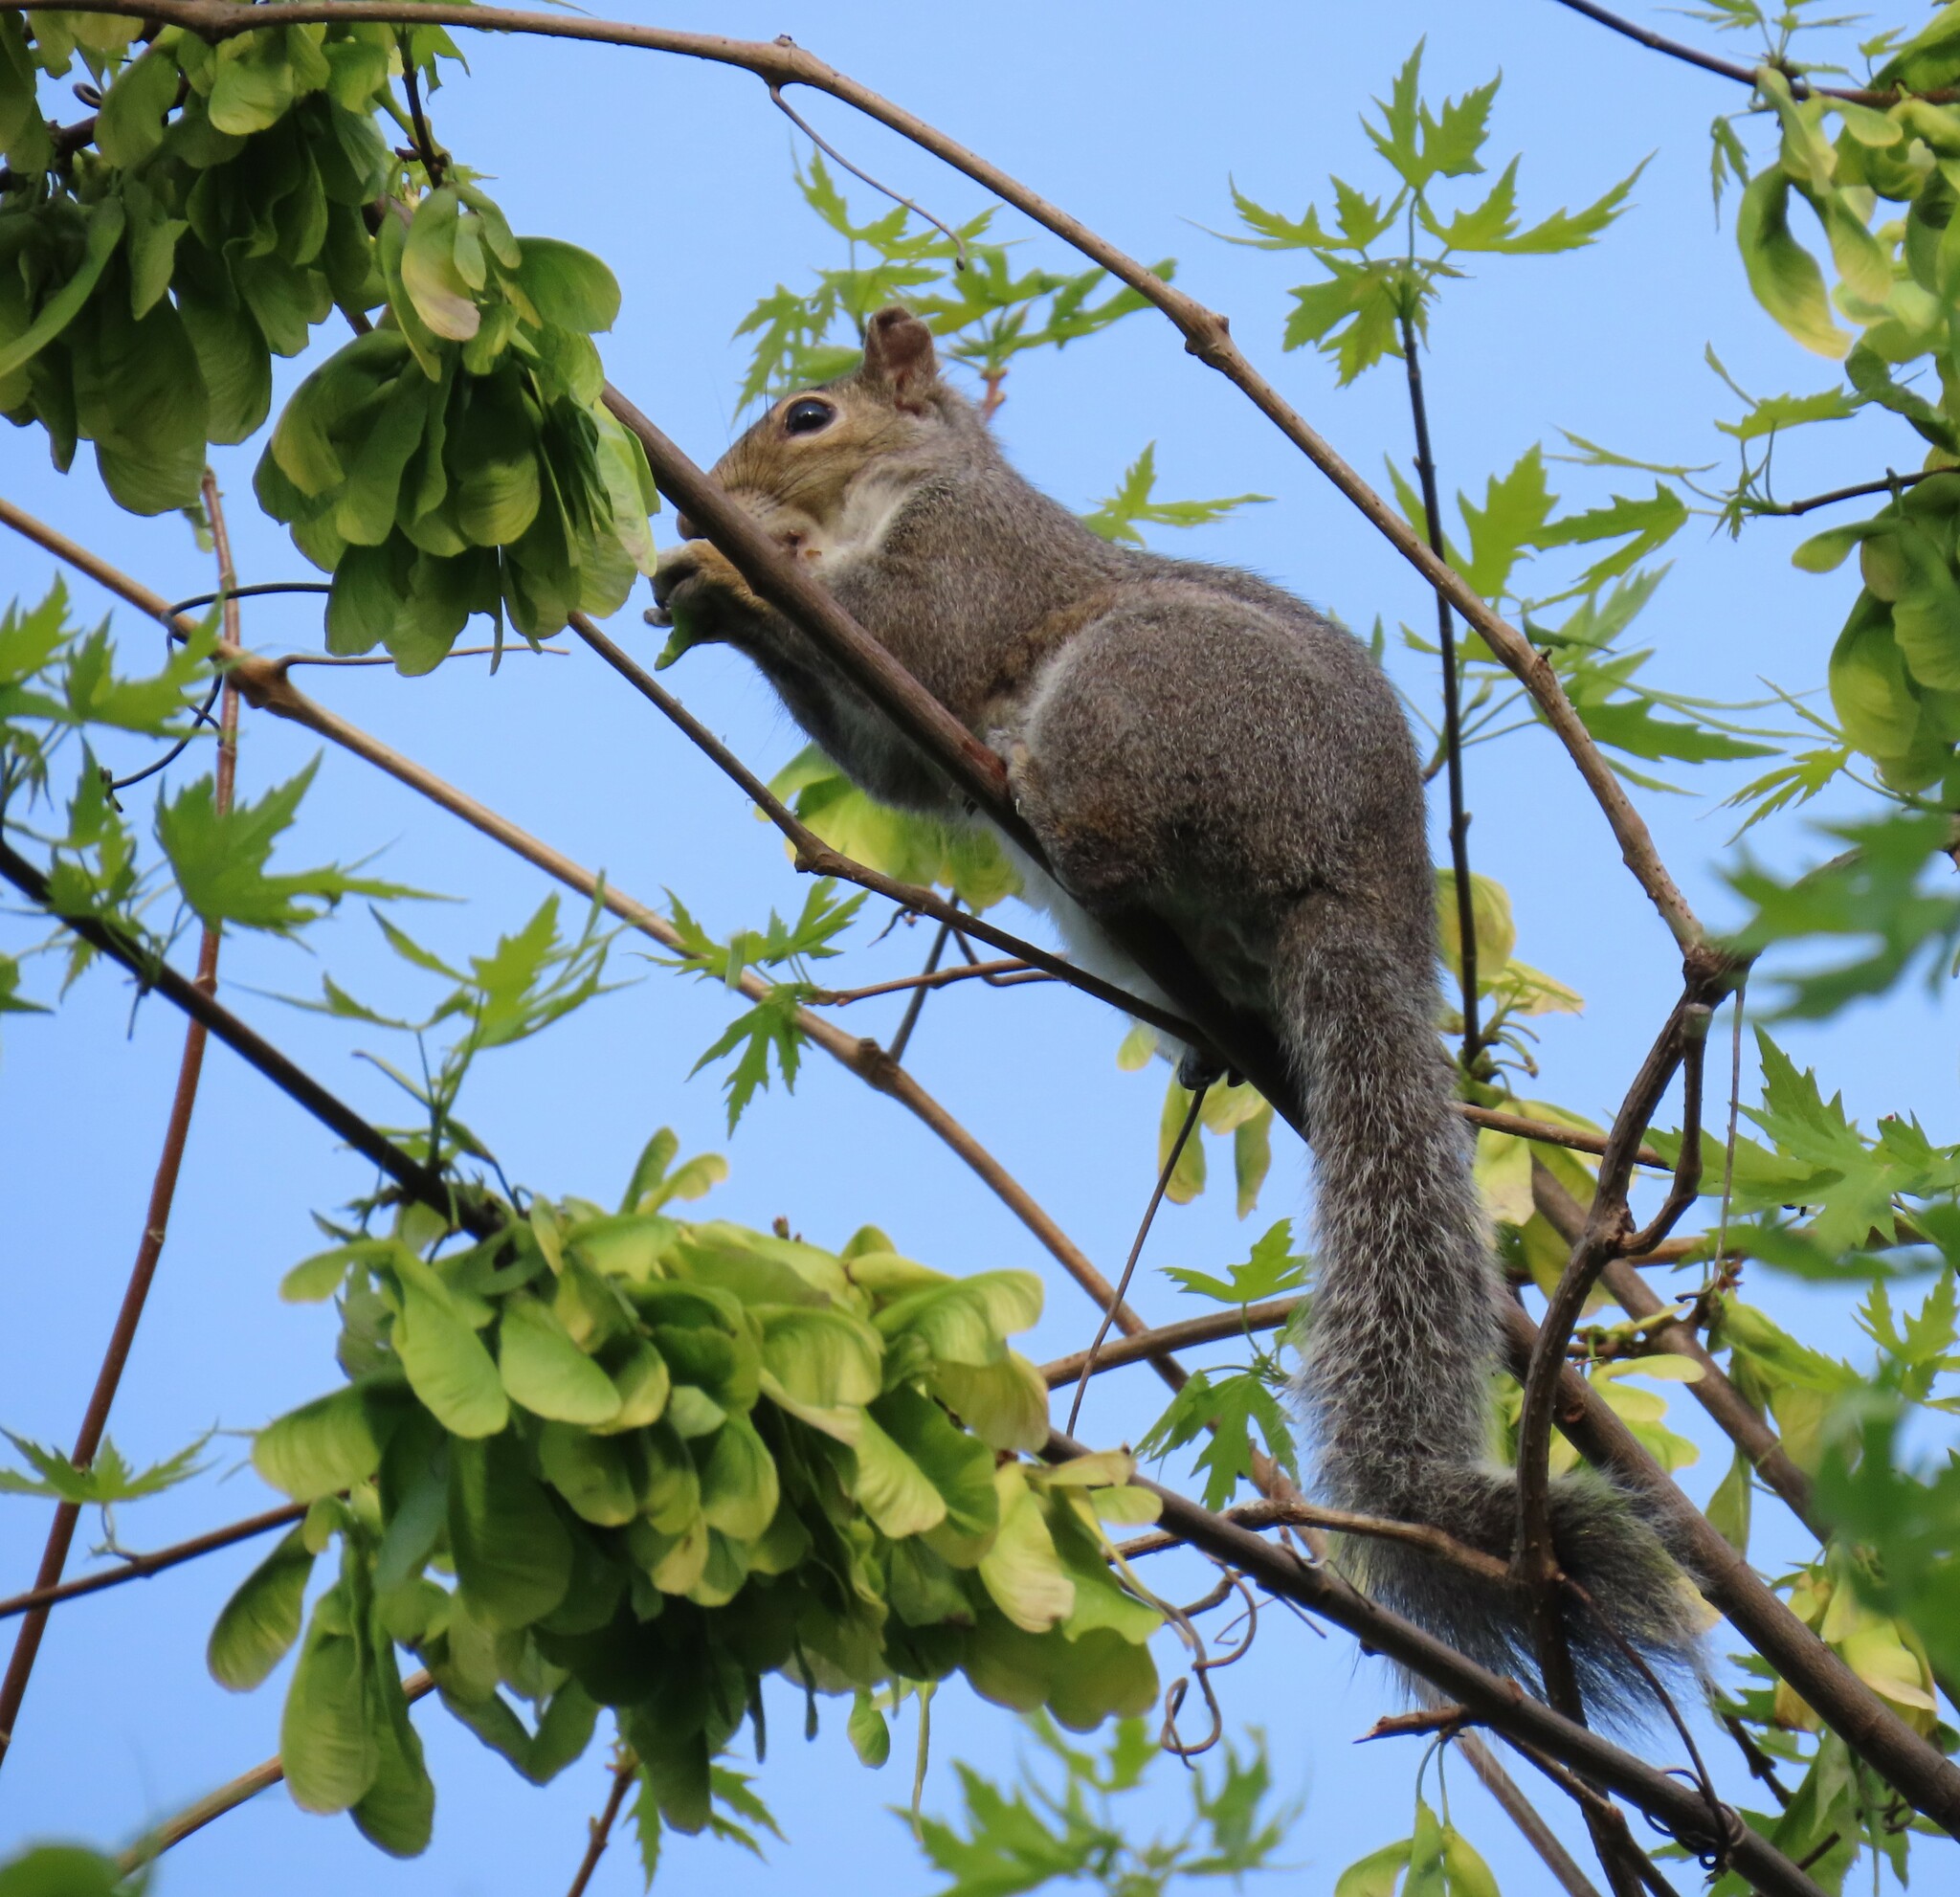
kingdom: Animalia
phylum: Chordata
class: Mammalia
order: Rodentia
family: Sciuridae
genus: Sciurus
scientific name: Sciurus carolinensis
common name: Eastern gray squirrel
